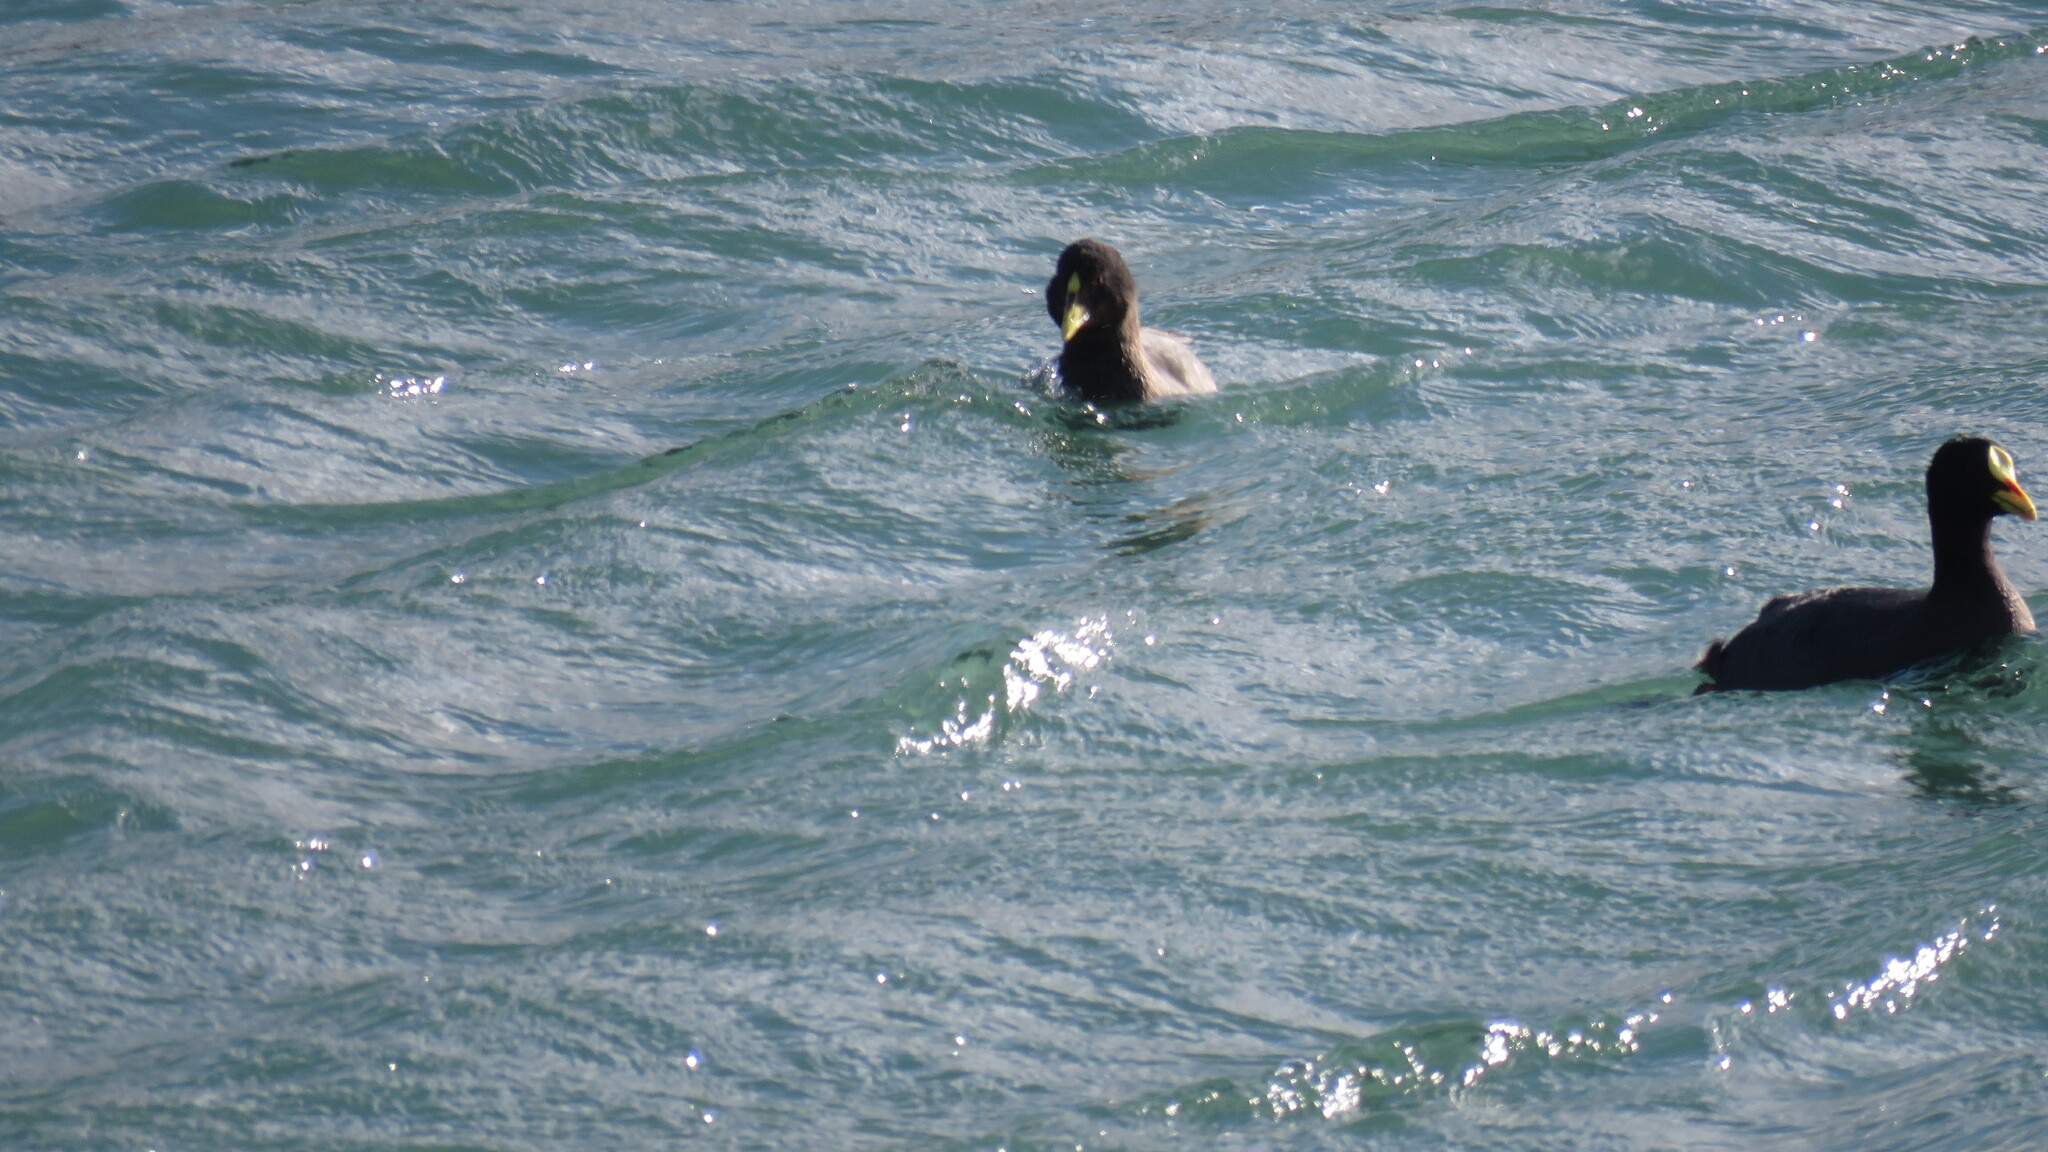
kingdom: Animalia
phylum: Chordata
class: Aves
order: Gruiformes
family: Rallidae
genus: Fulica
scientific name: Fulica armillata
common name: Red-gartered coot
